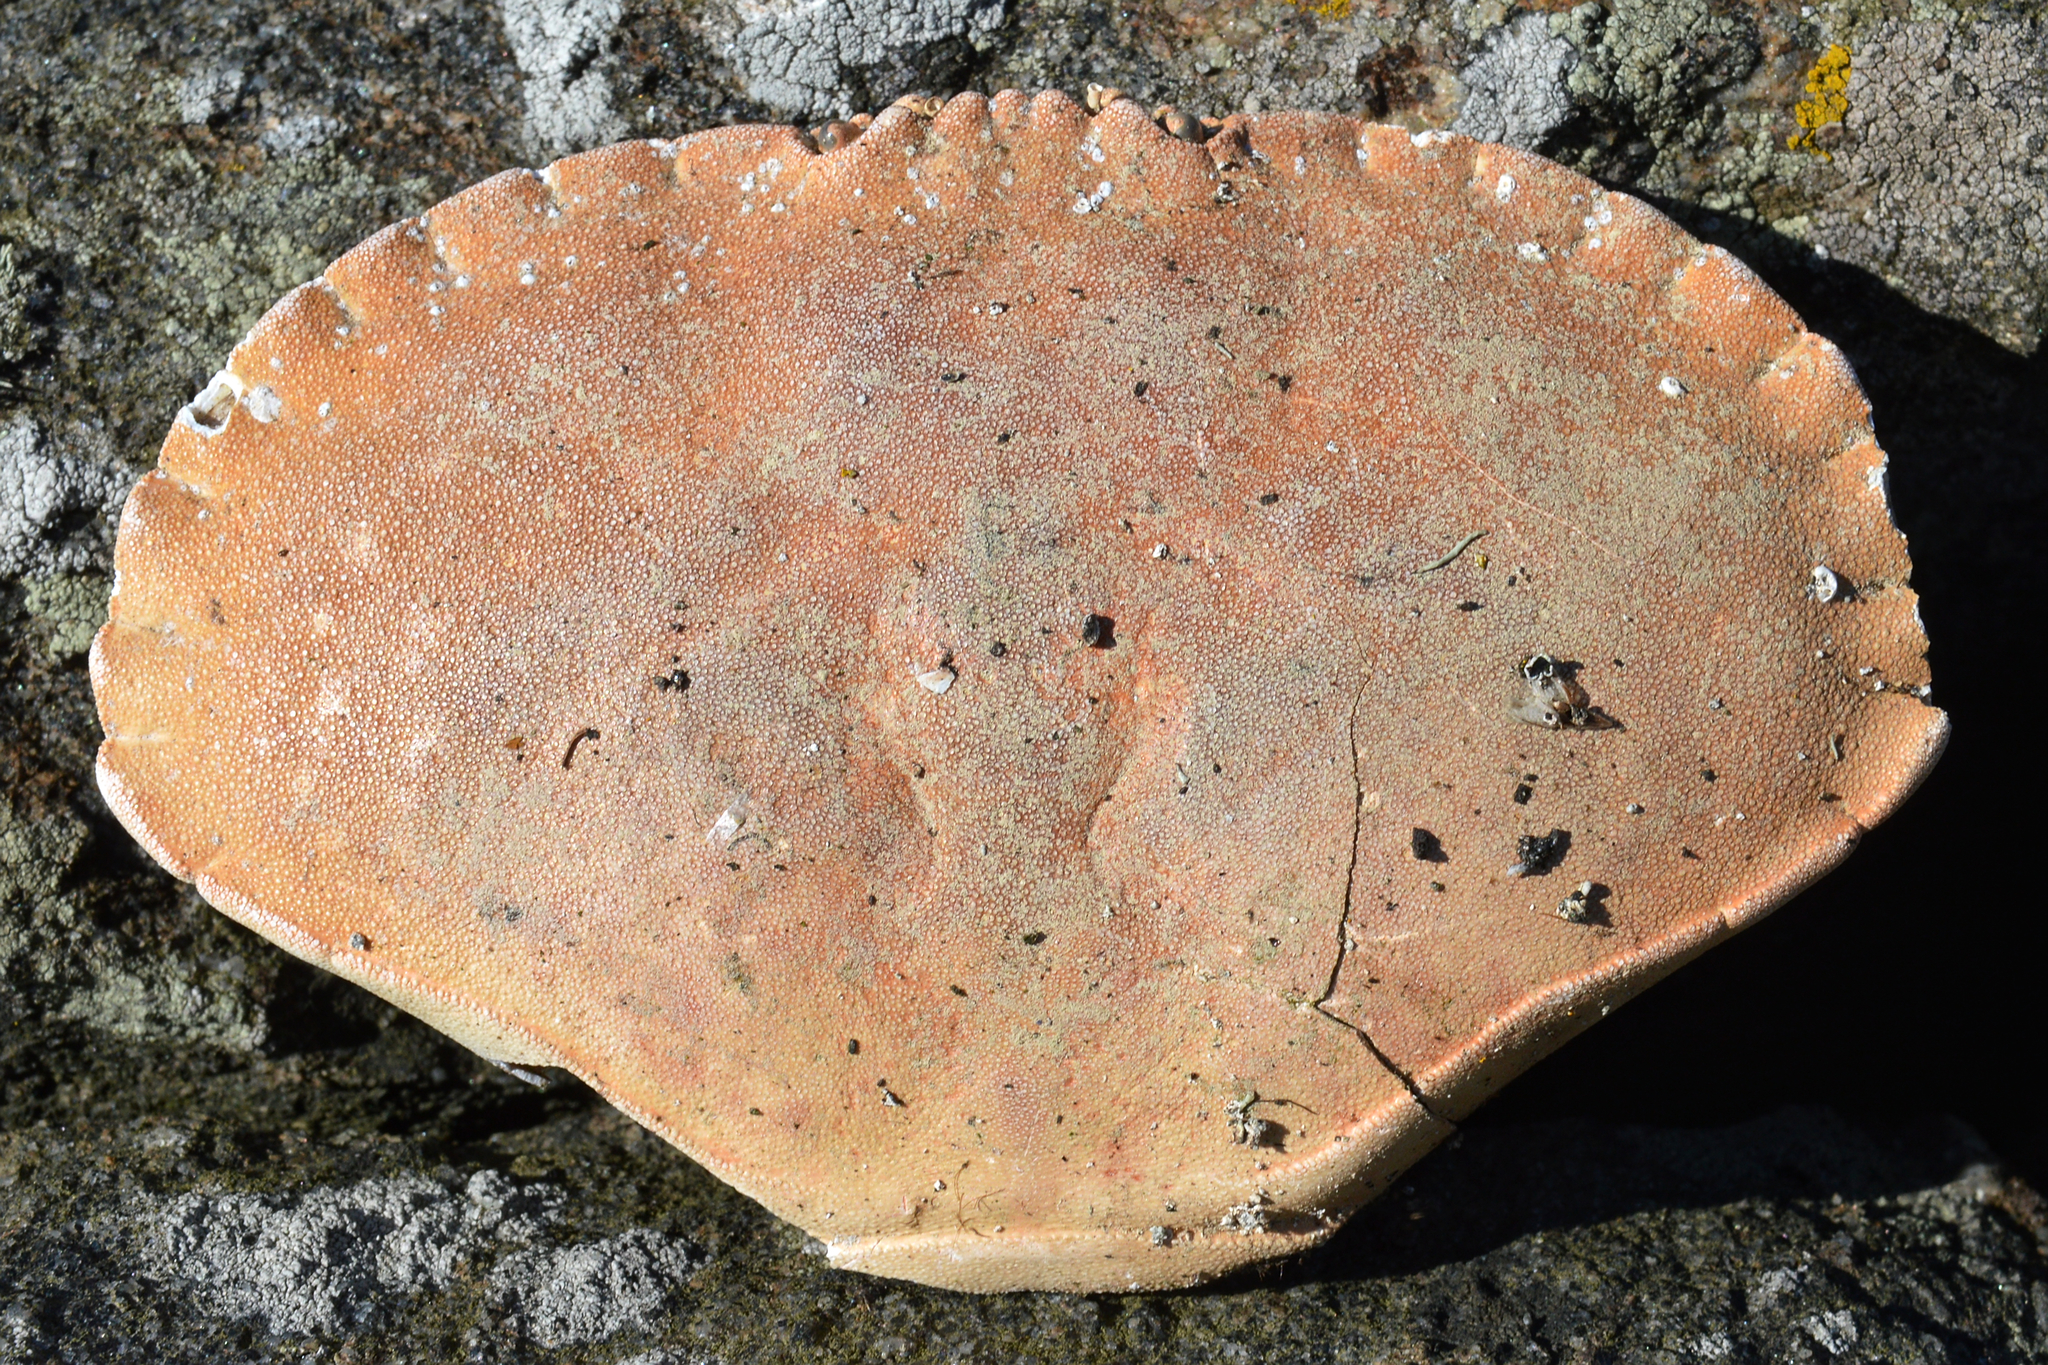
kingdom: Animalia
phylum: Arthropoda
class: Malacostraca
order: Decapoda
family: Cancridae
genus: Cancer
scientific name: Cancer pagurus
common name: Edible crab
